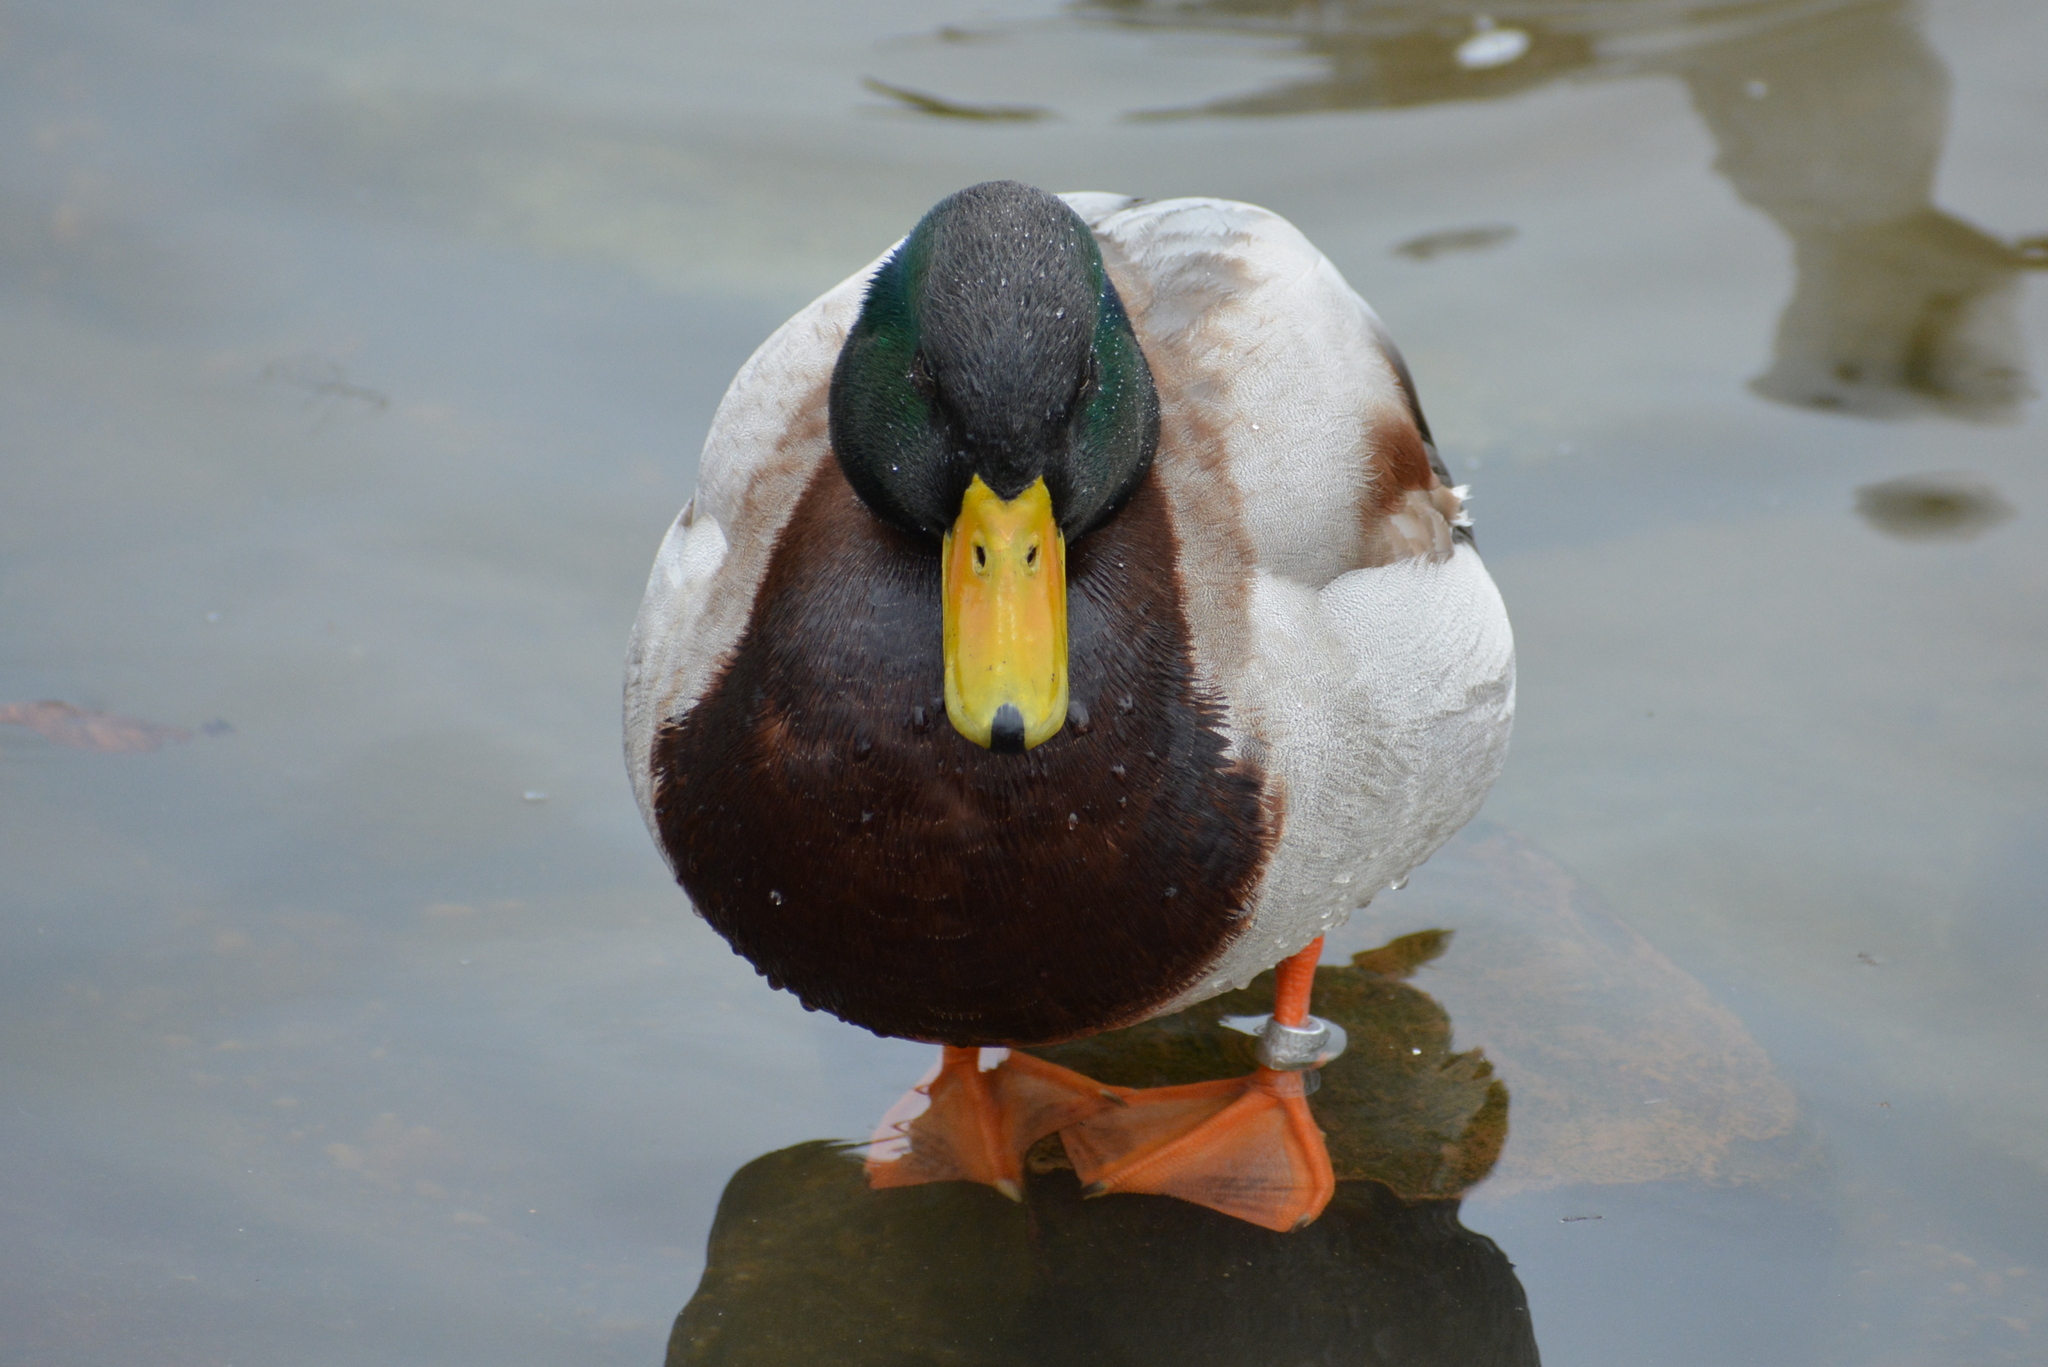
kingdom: Animalia
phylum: Chordata
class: Aves
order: Anseriformes
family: Anatidae
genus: Anas
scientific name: Anas platyrhynchos
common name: Mallard
